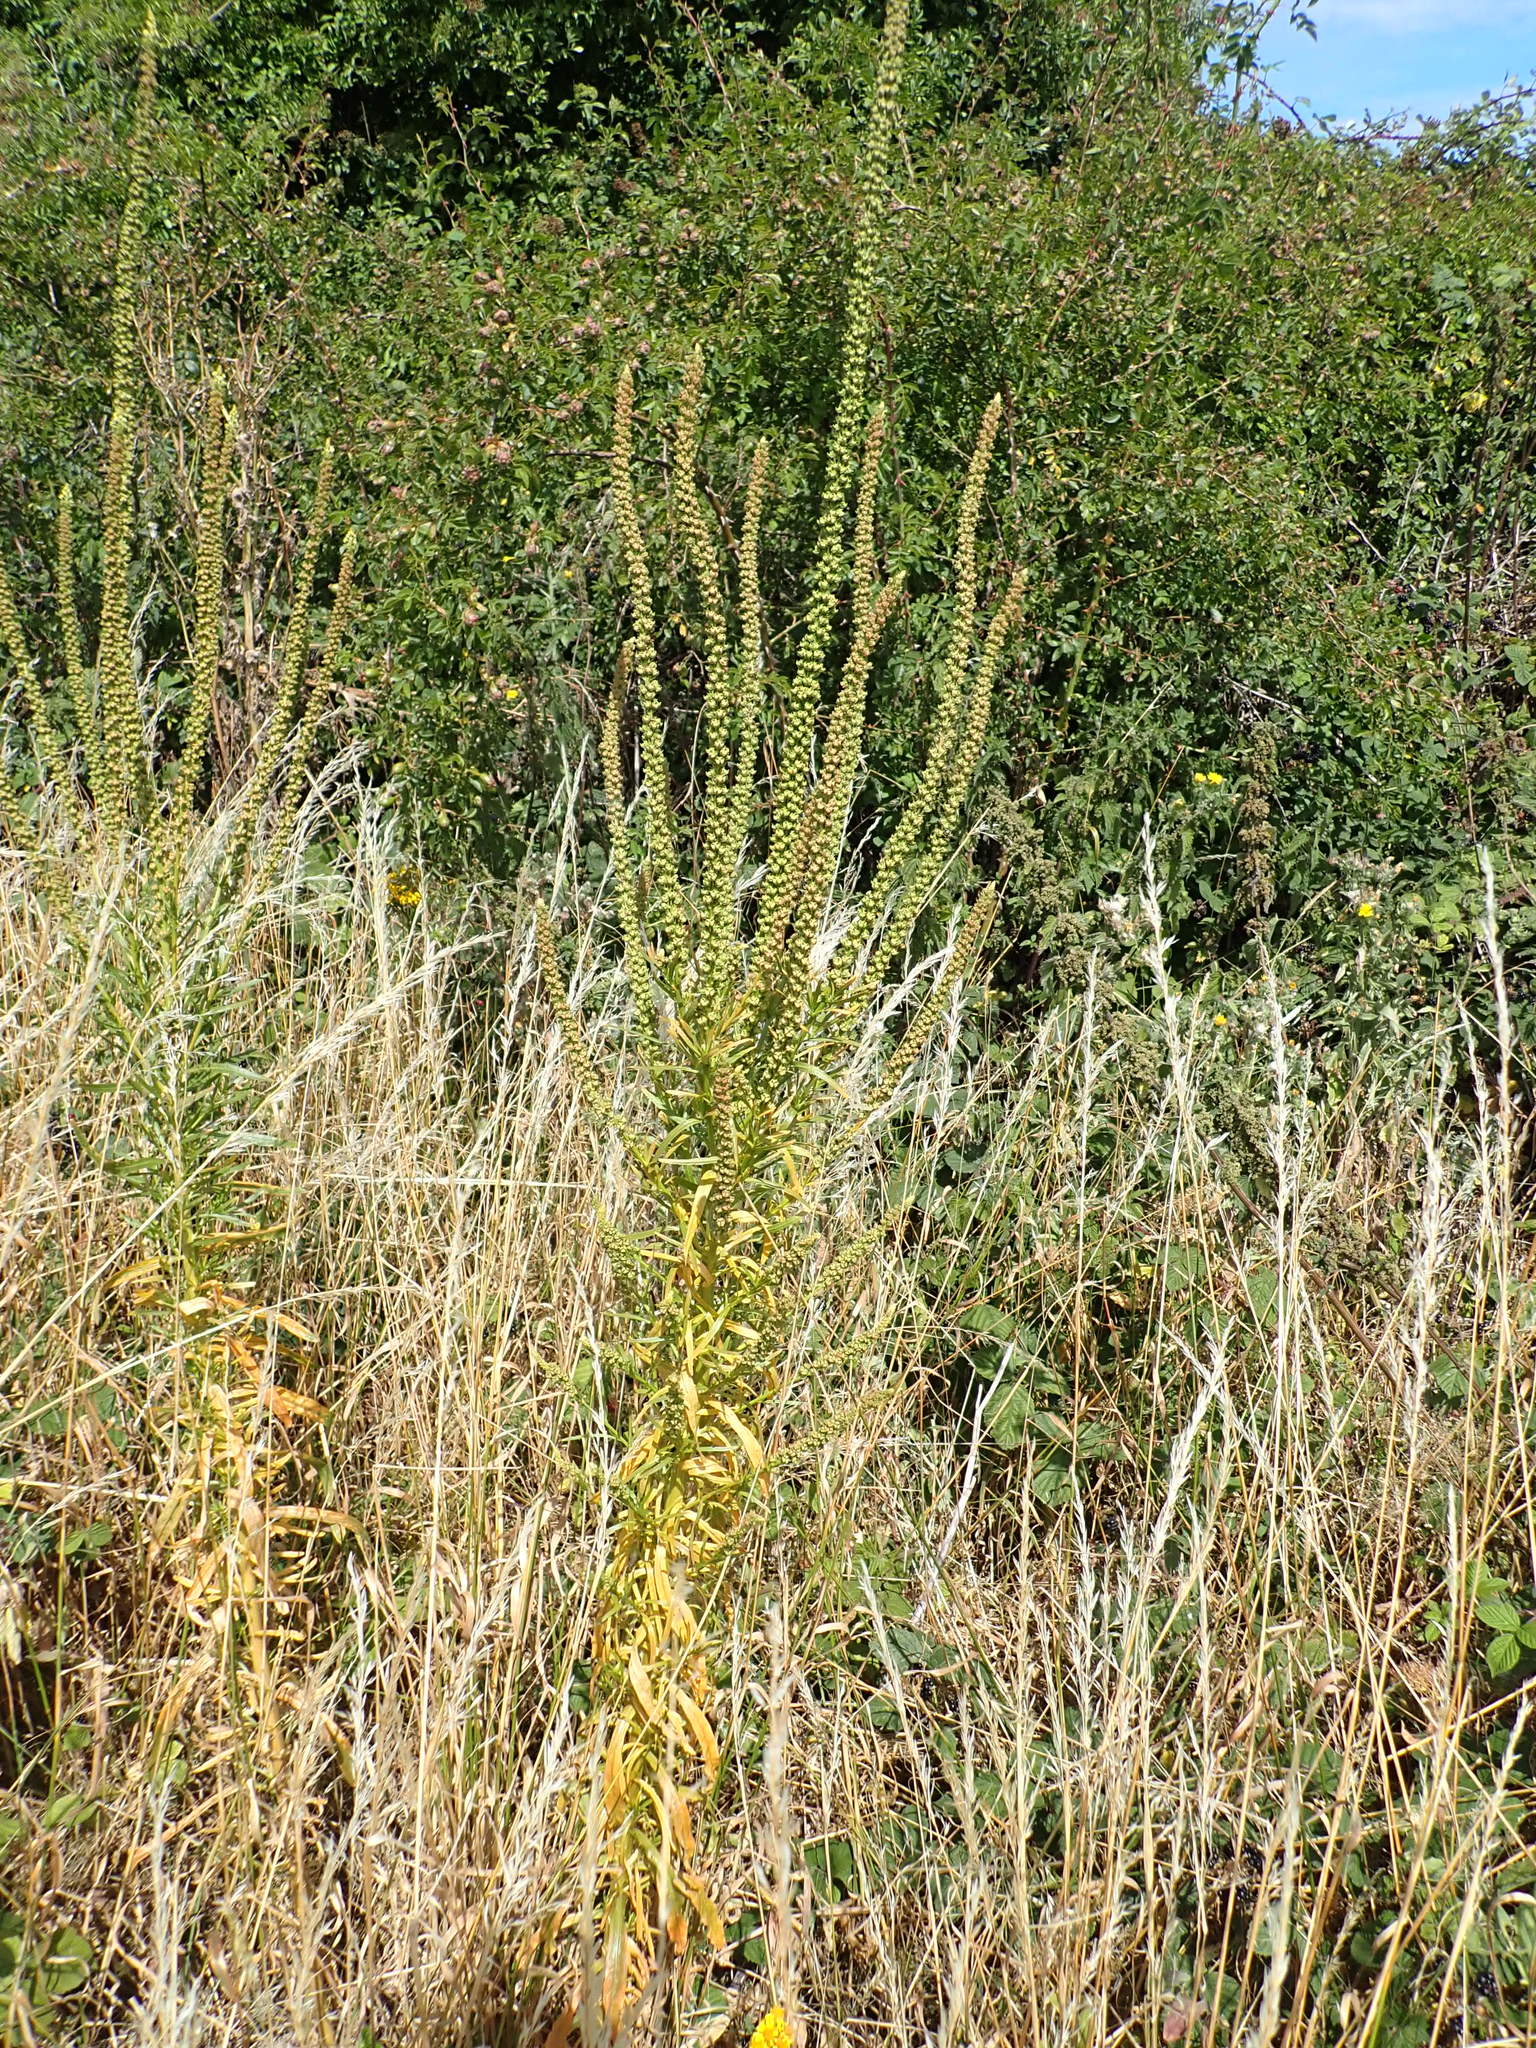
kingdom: Plantae
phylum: Tracheophyta
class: Magnoliopsida
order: Brassicales
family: Resedaceae
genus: Reseda
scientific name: Reseda luteola
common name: Weld
